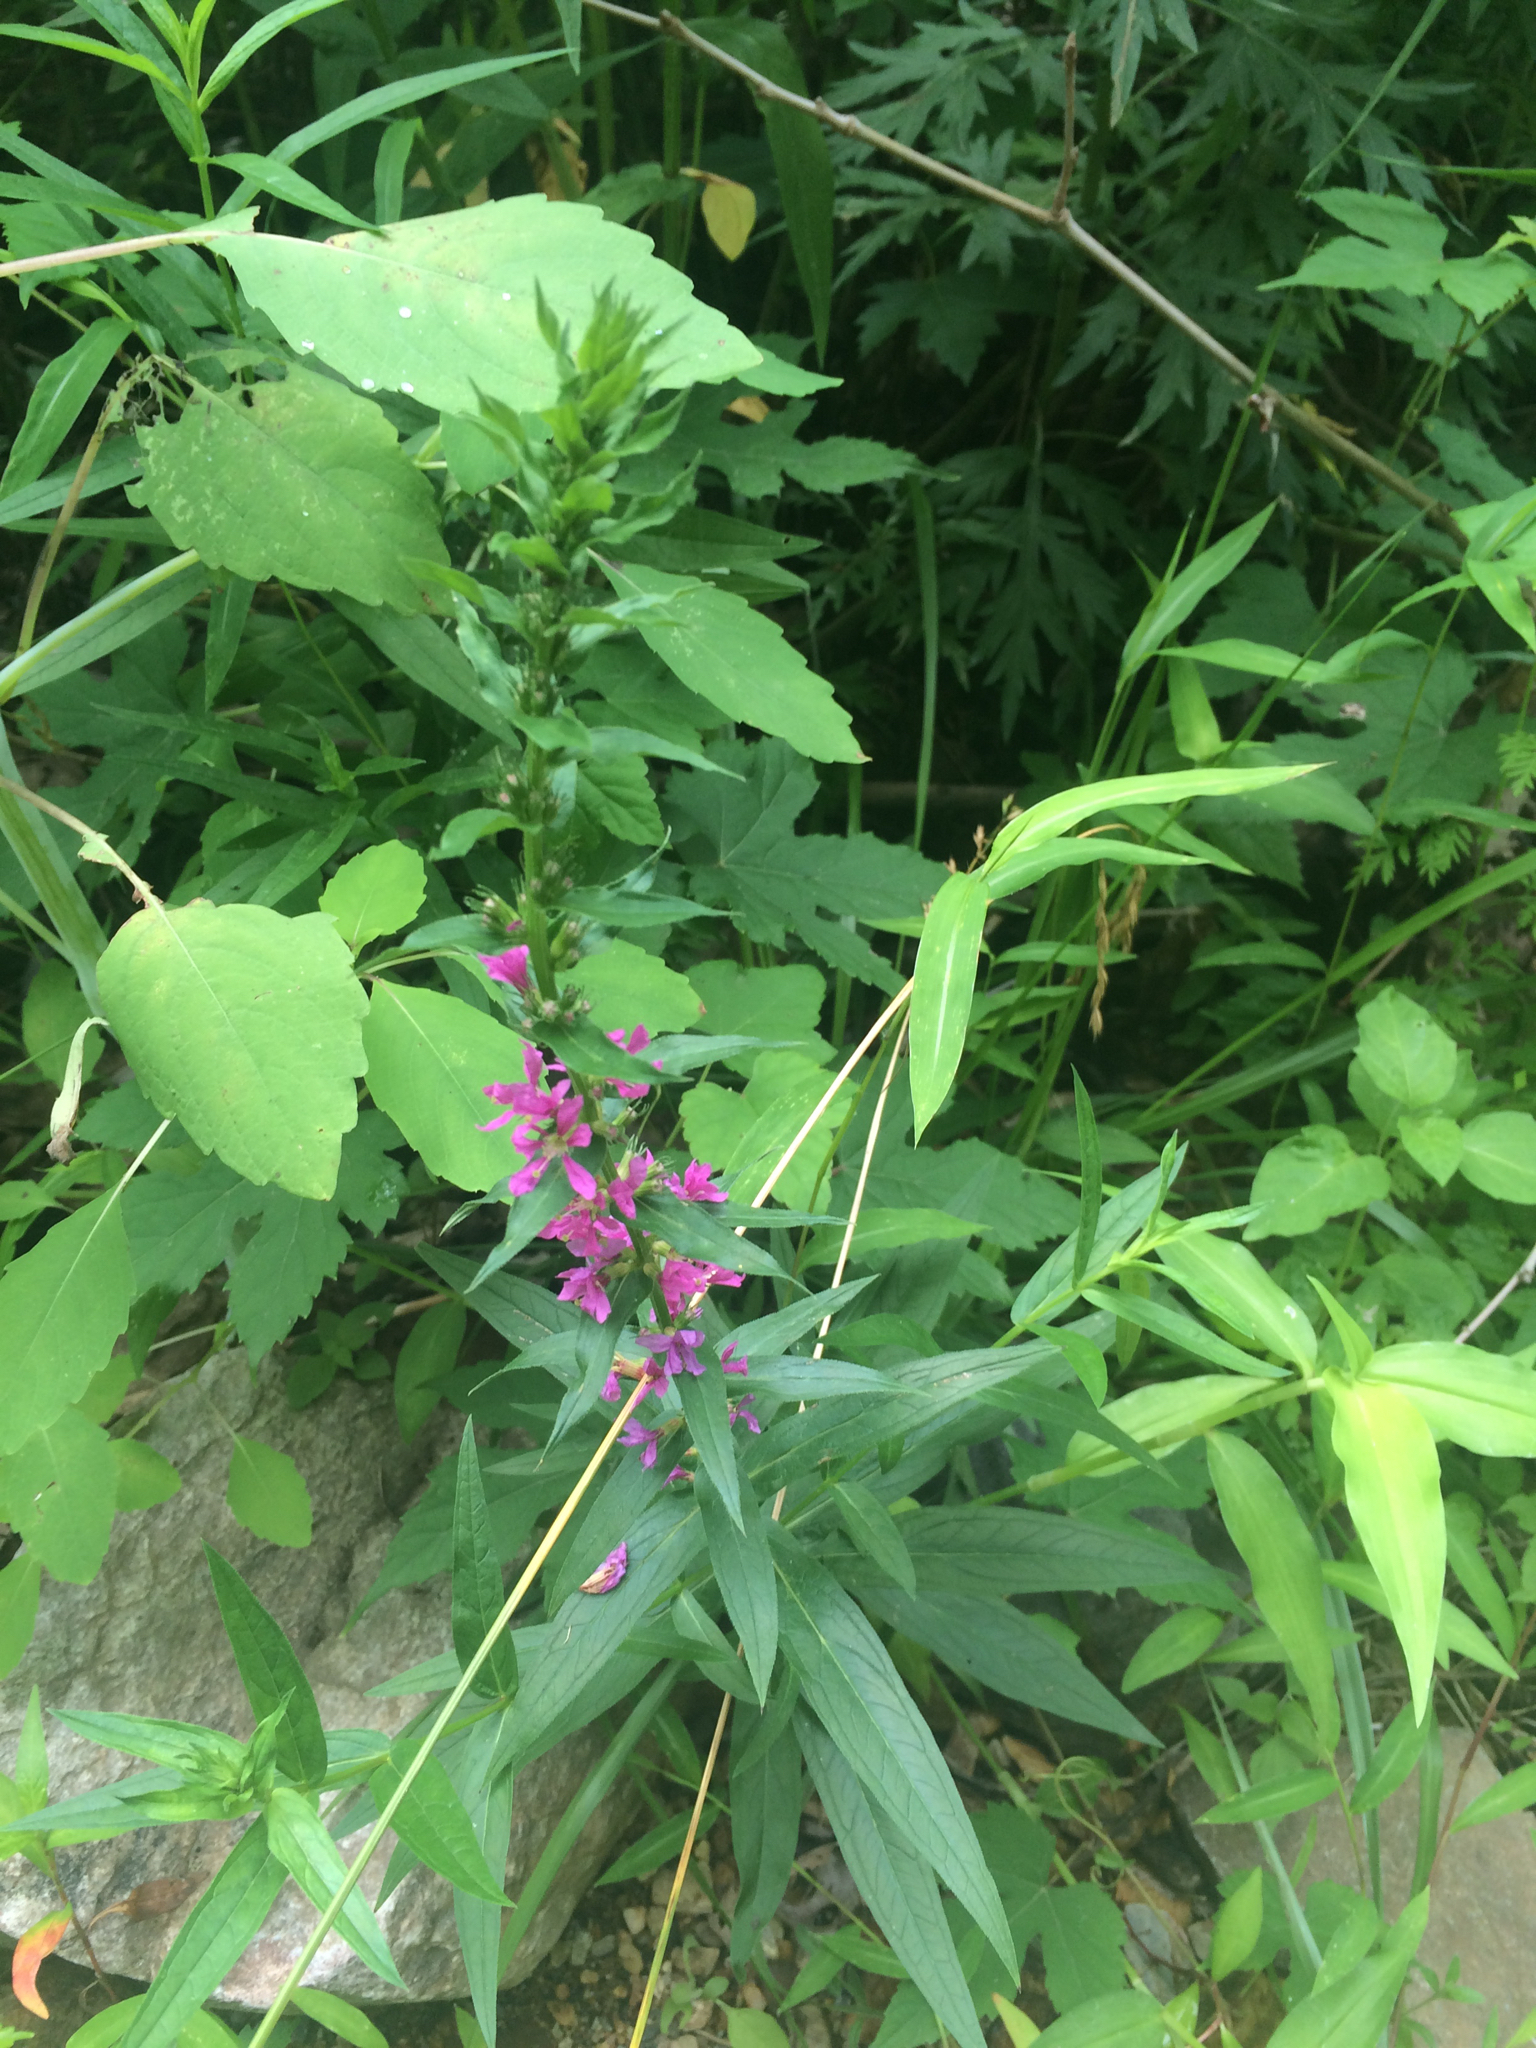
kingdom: Plantae
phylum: Tracheophyta
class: Magnoliopsida
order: Myrtales
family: Lythraceae
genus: Lythrum
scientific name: Lythrum salicaria
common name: Purple loosestrife
